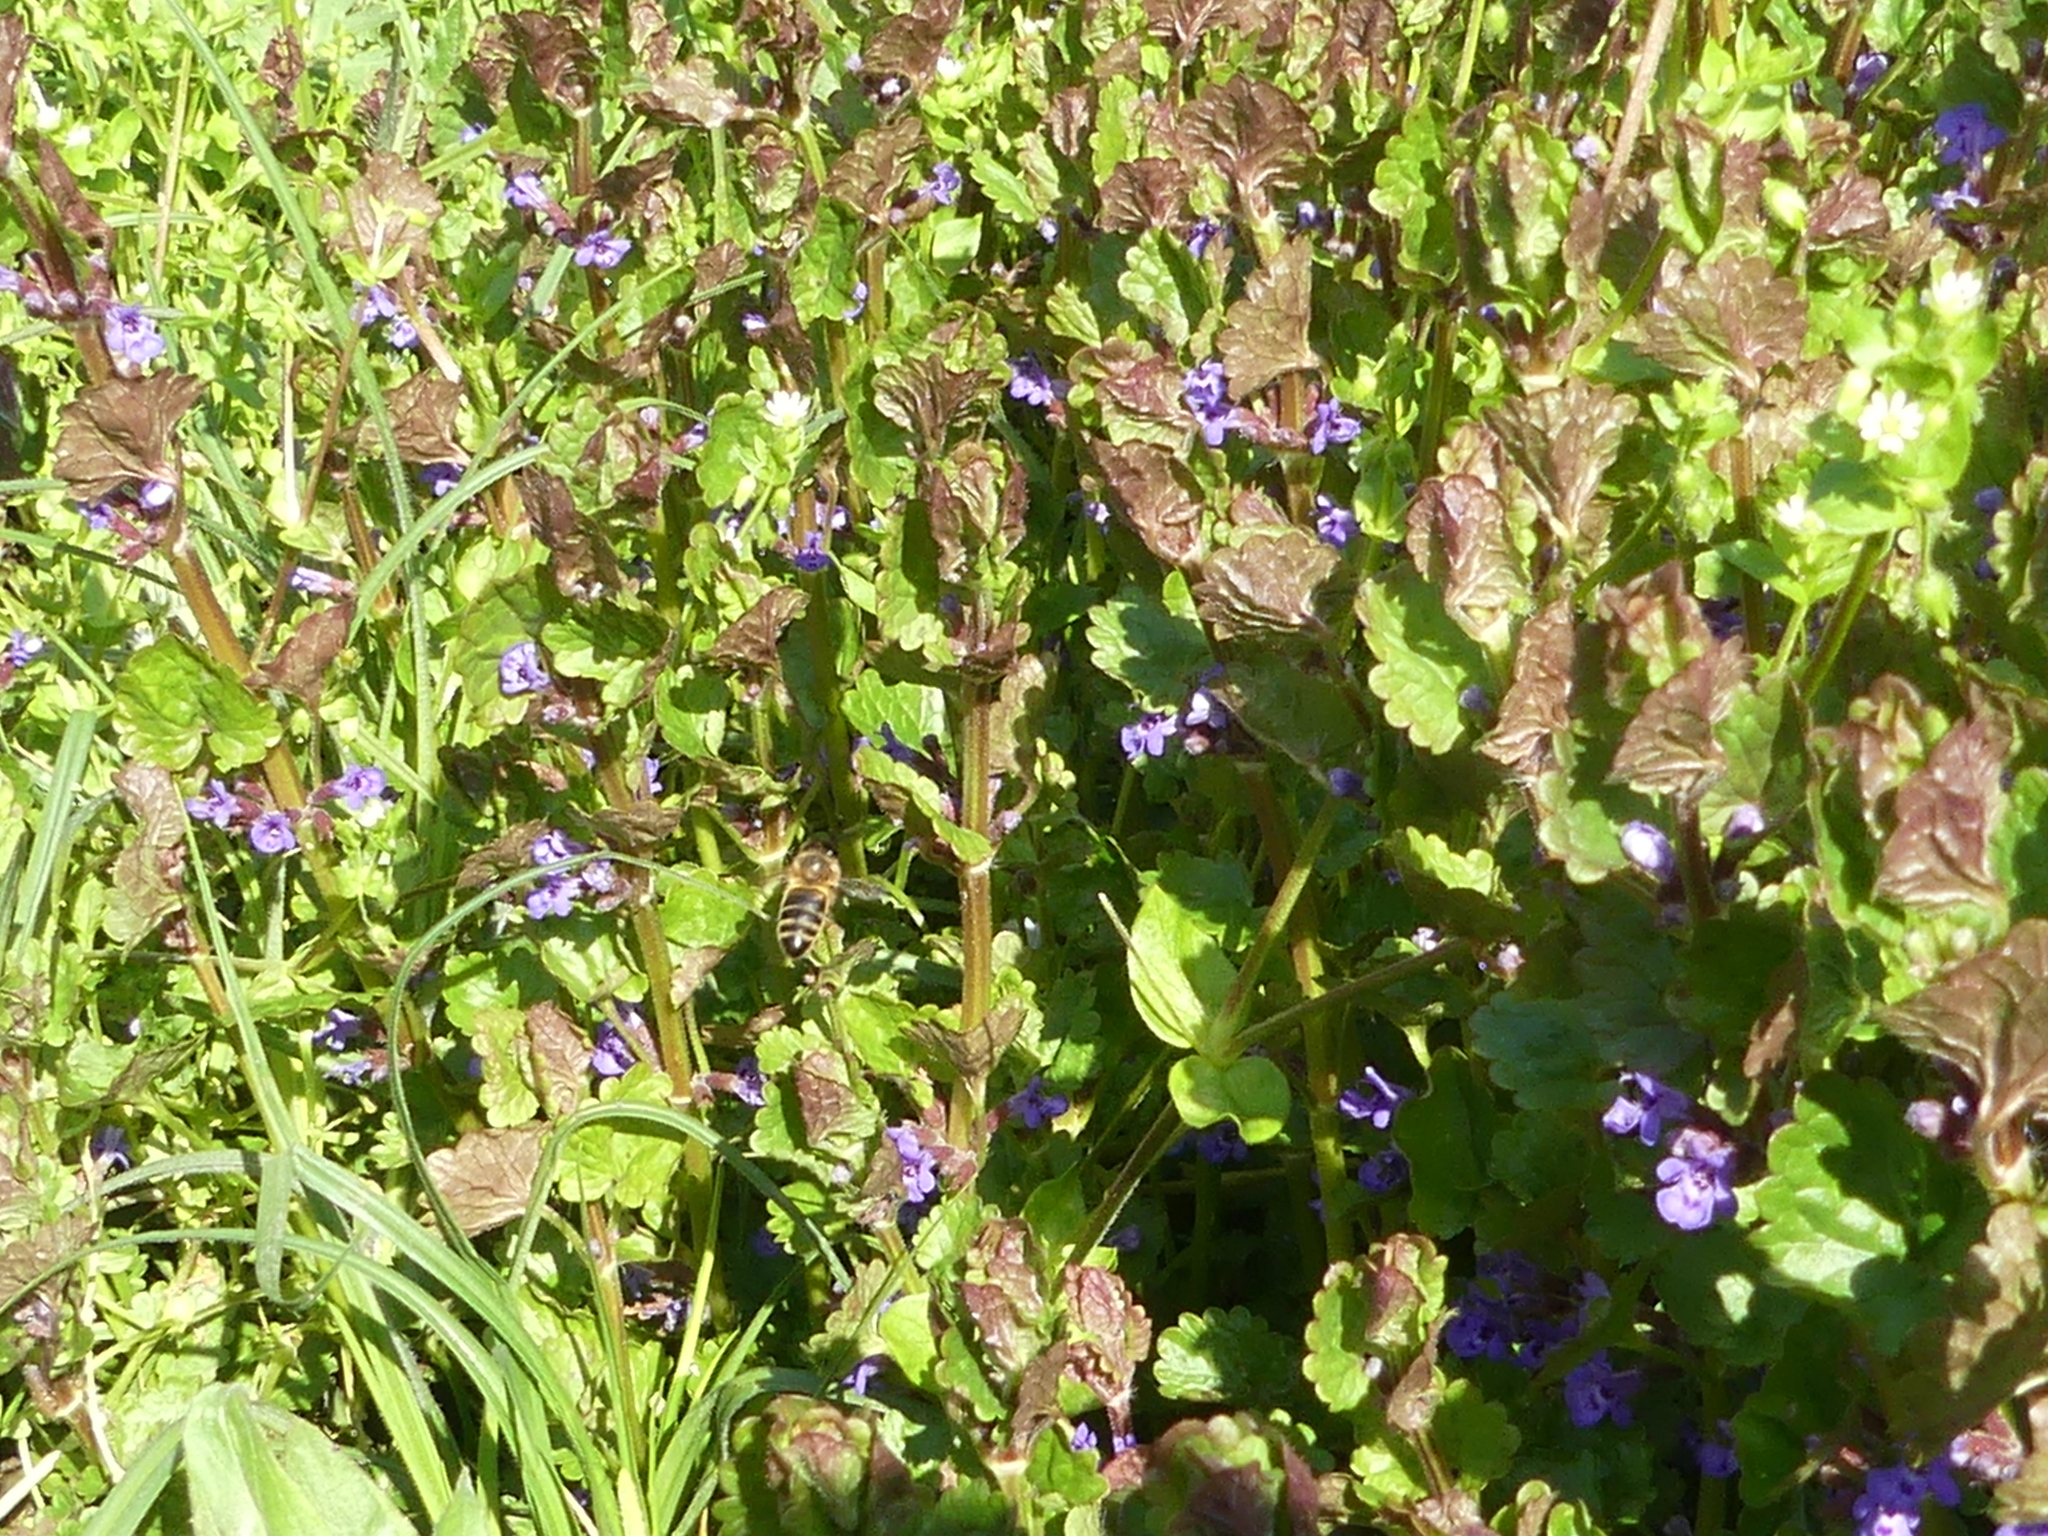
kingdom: Animalia
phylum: Arthropoda
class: Insecta
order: Hymenoptera
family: Apidae
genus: Apis
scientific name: Apis mellifera
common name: Honey bee
